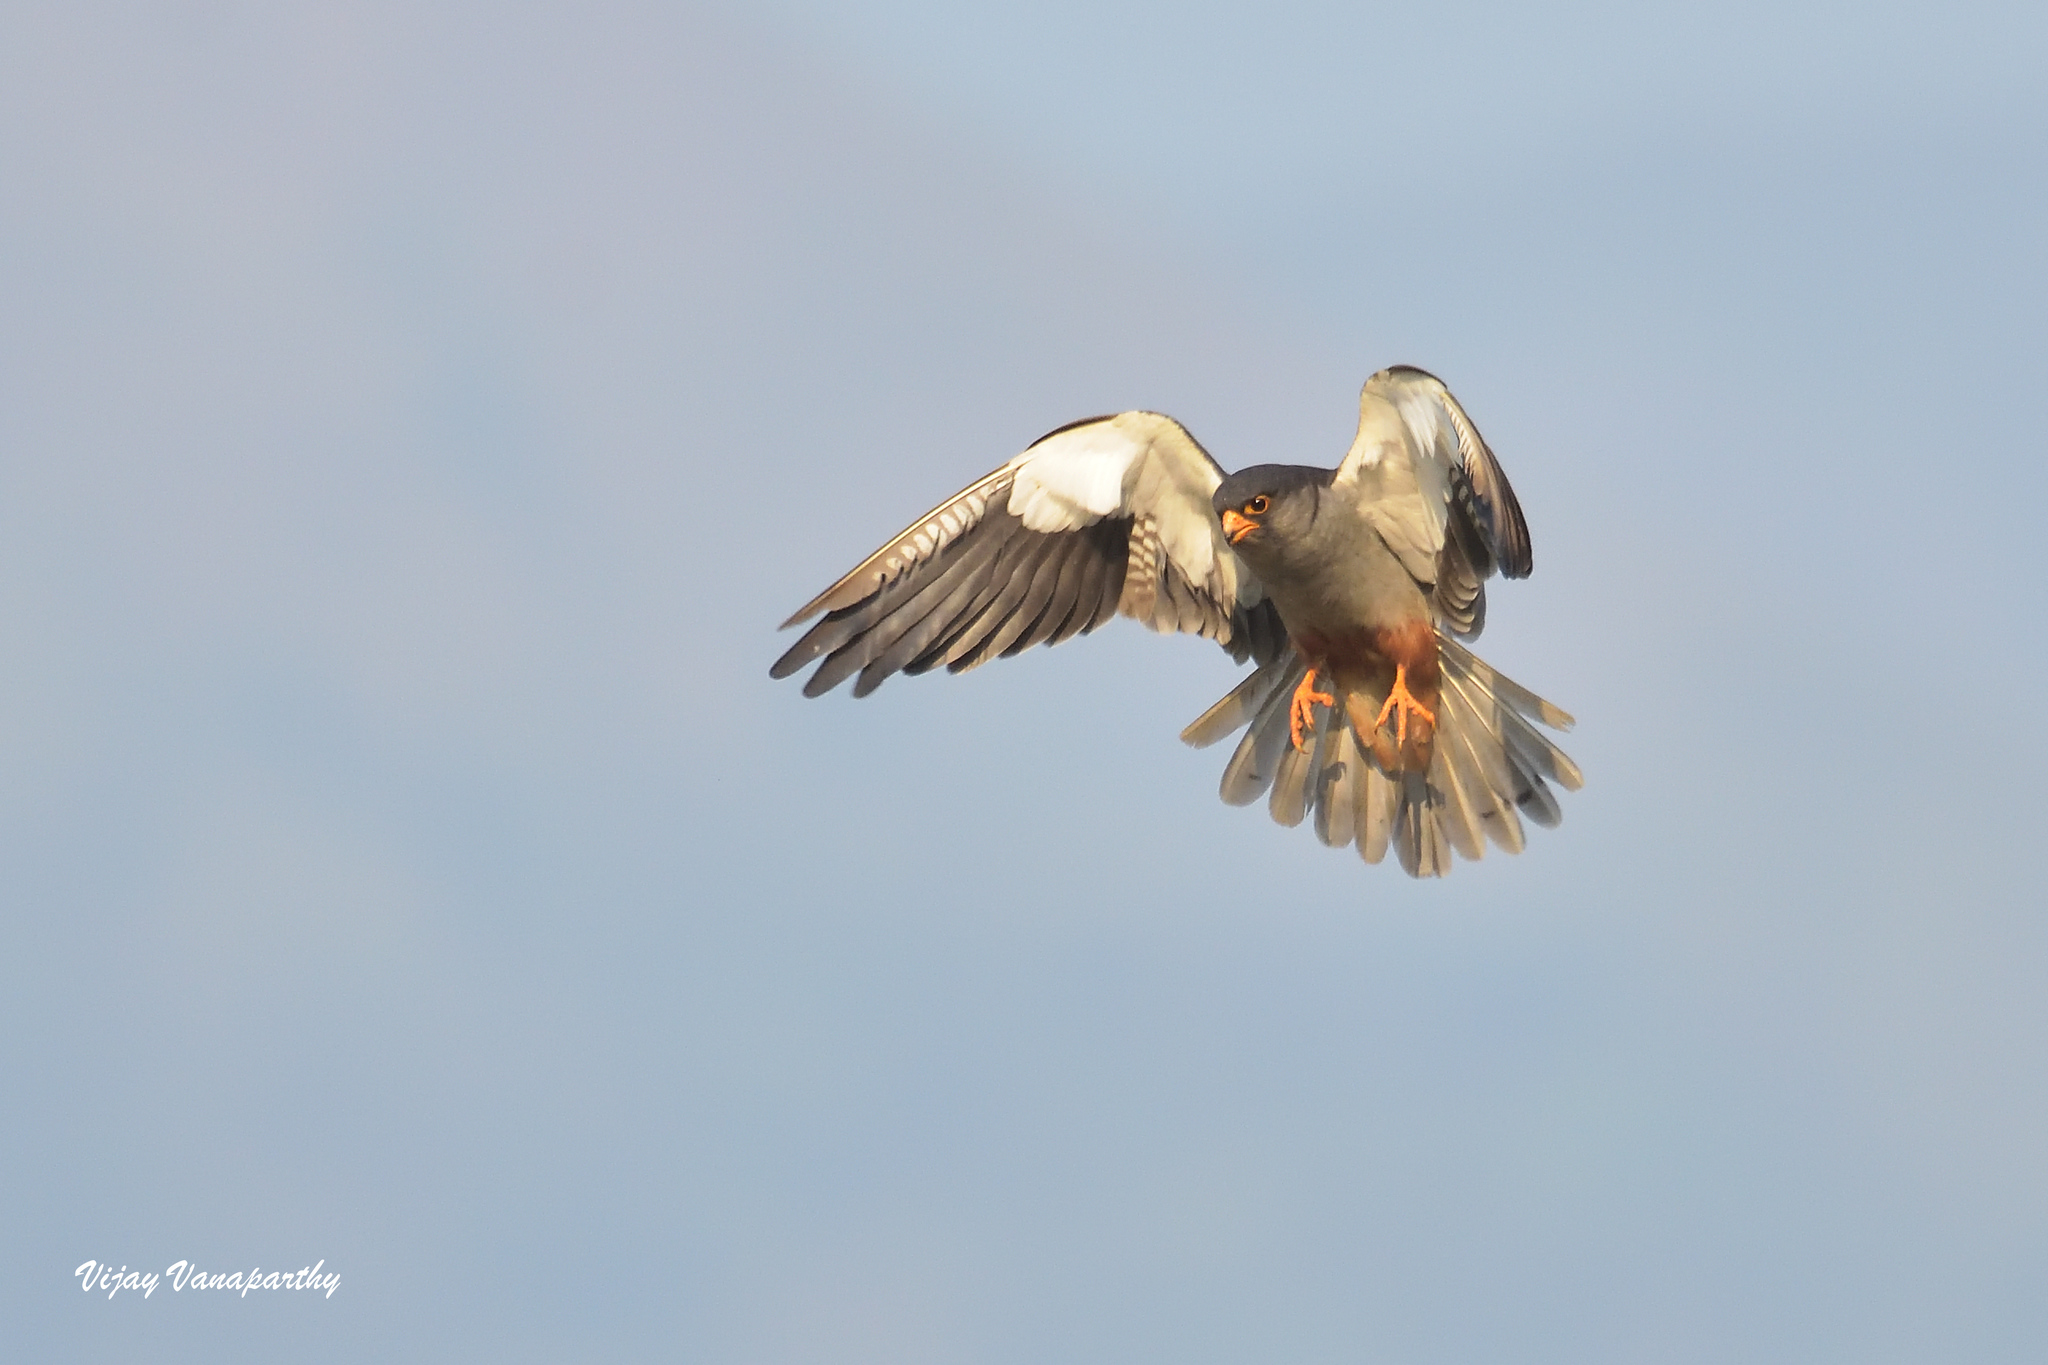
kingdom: Animalia
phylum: Chordata
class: Aves
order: Falconiformes
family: Falconidae
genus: Falco
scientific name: Falco amurensis
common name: Amur falcon
